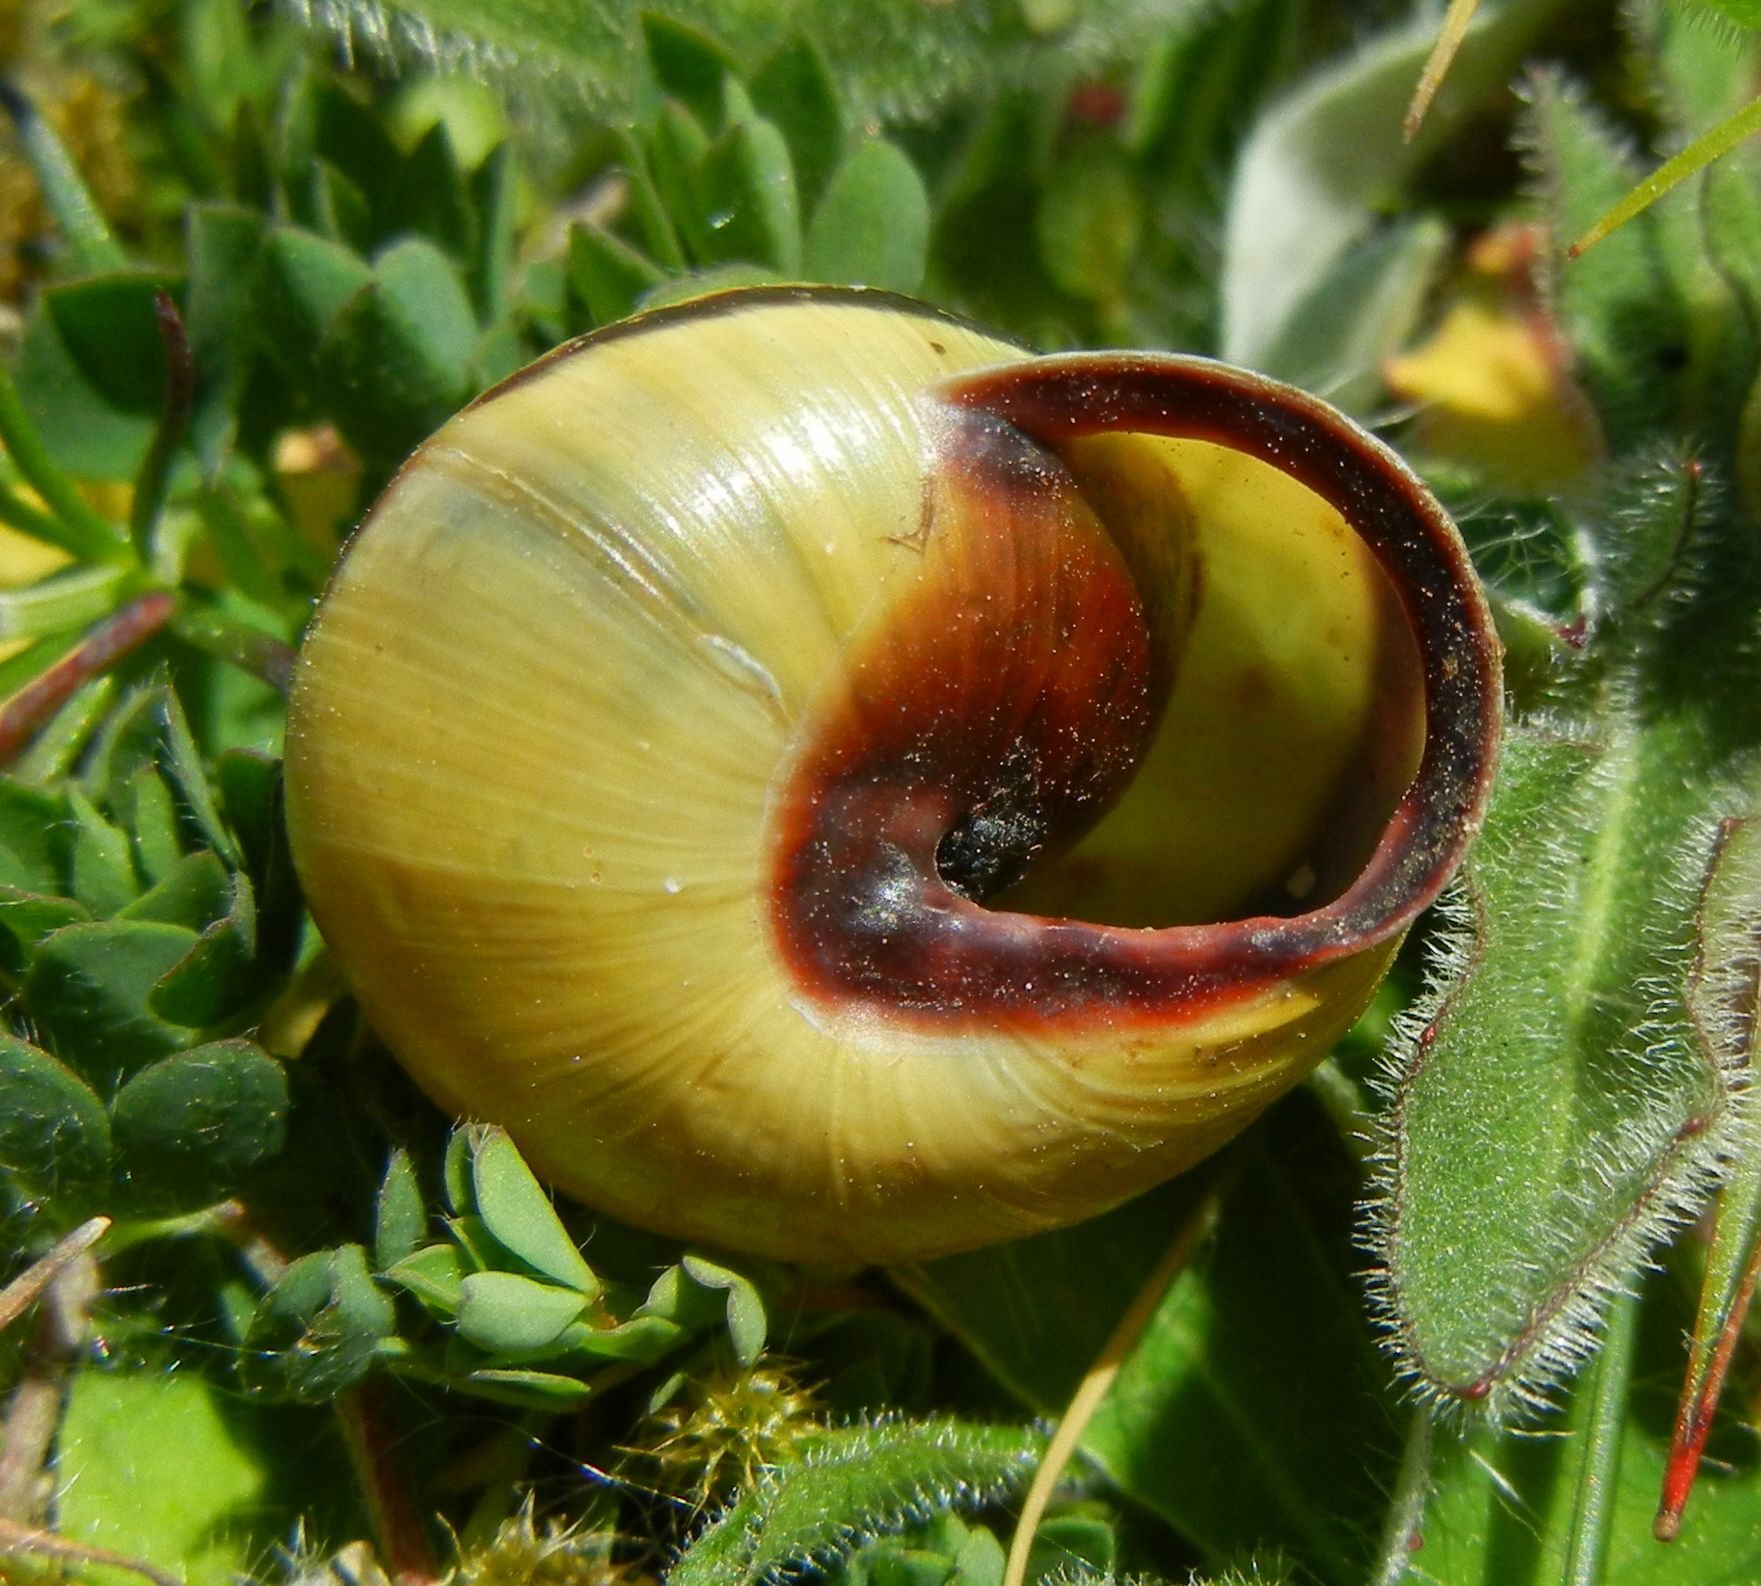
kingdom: Animalia
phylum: Mollusca
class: Gastropoda
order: Stylommatophora
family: Helicidae
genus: Cepaea
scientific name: Cepaea nemoralis
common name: Grovesnail
